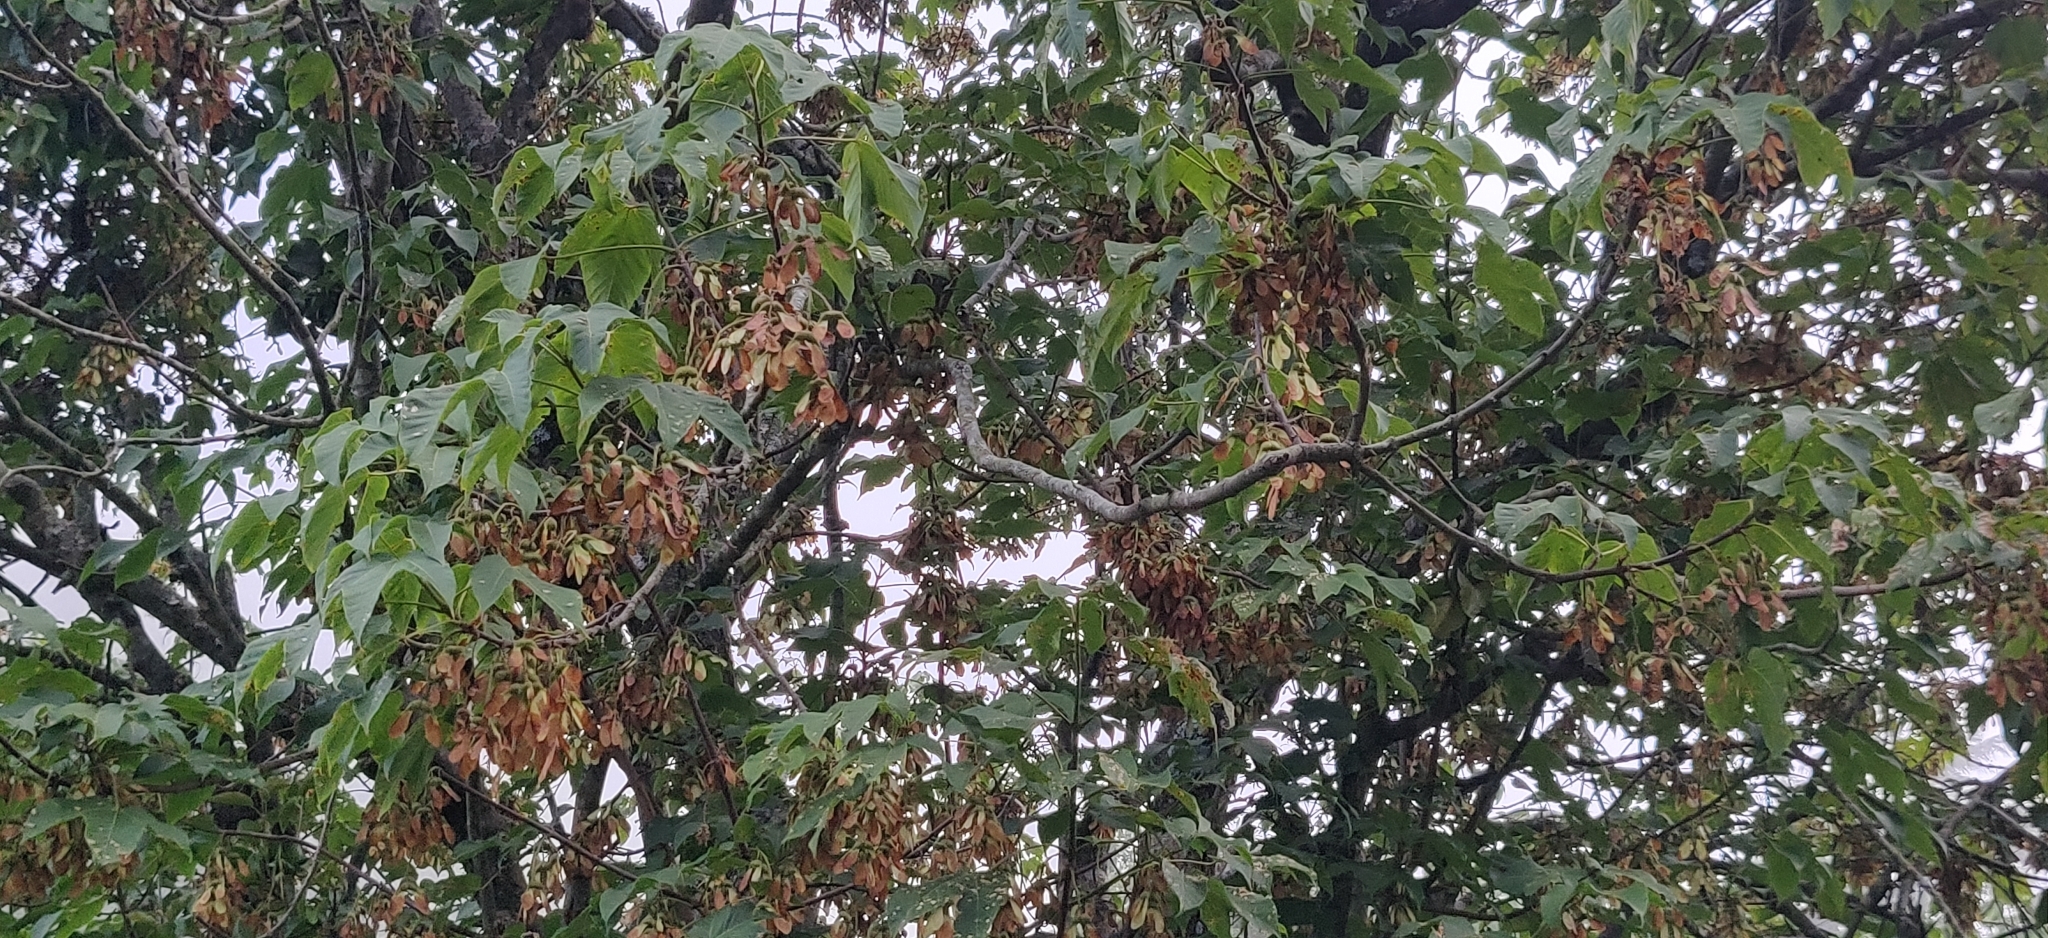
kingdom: Plantae
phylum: Tracheophyta
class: Magnoliopsida
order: Sapindales
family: Sapindaceae
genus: Acer
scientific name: Acer sterculiaceum
